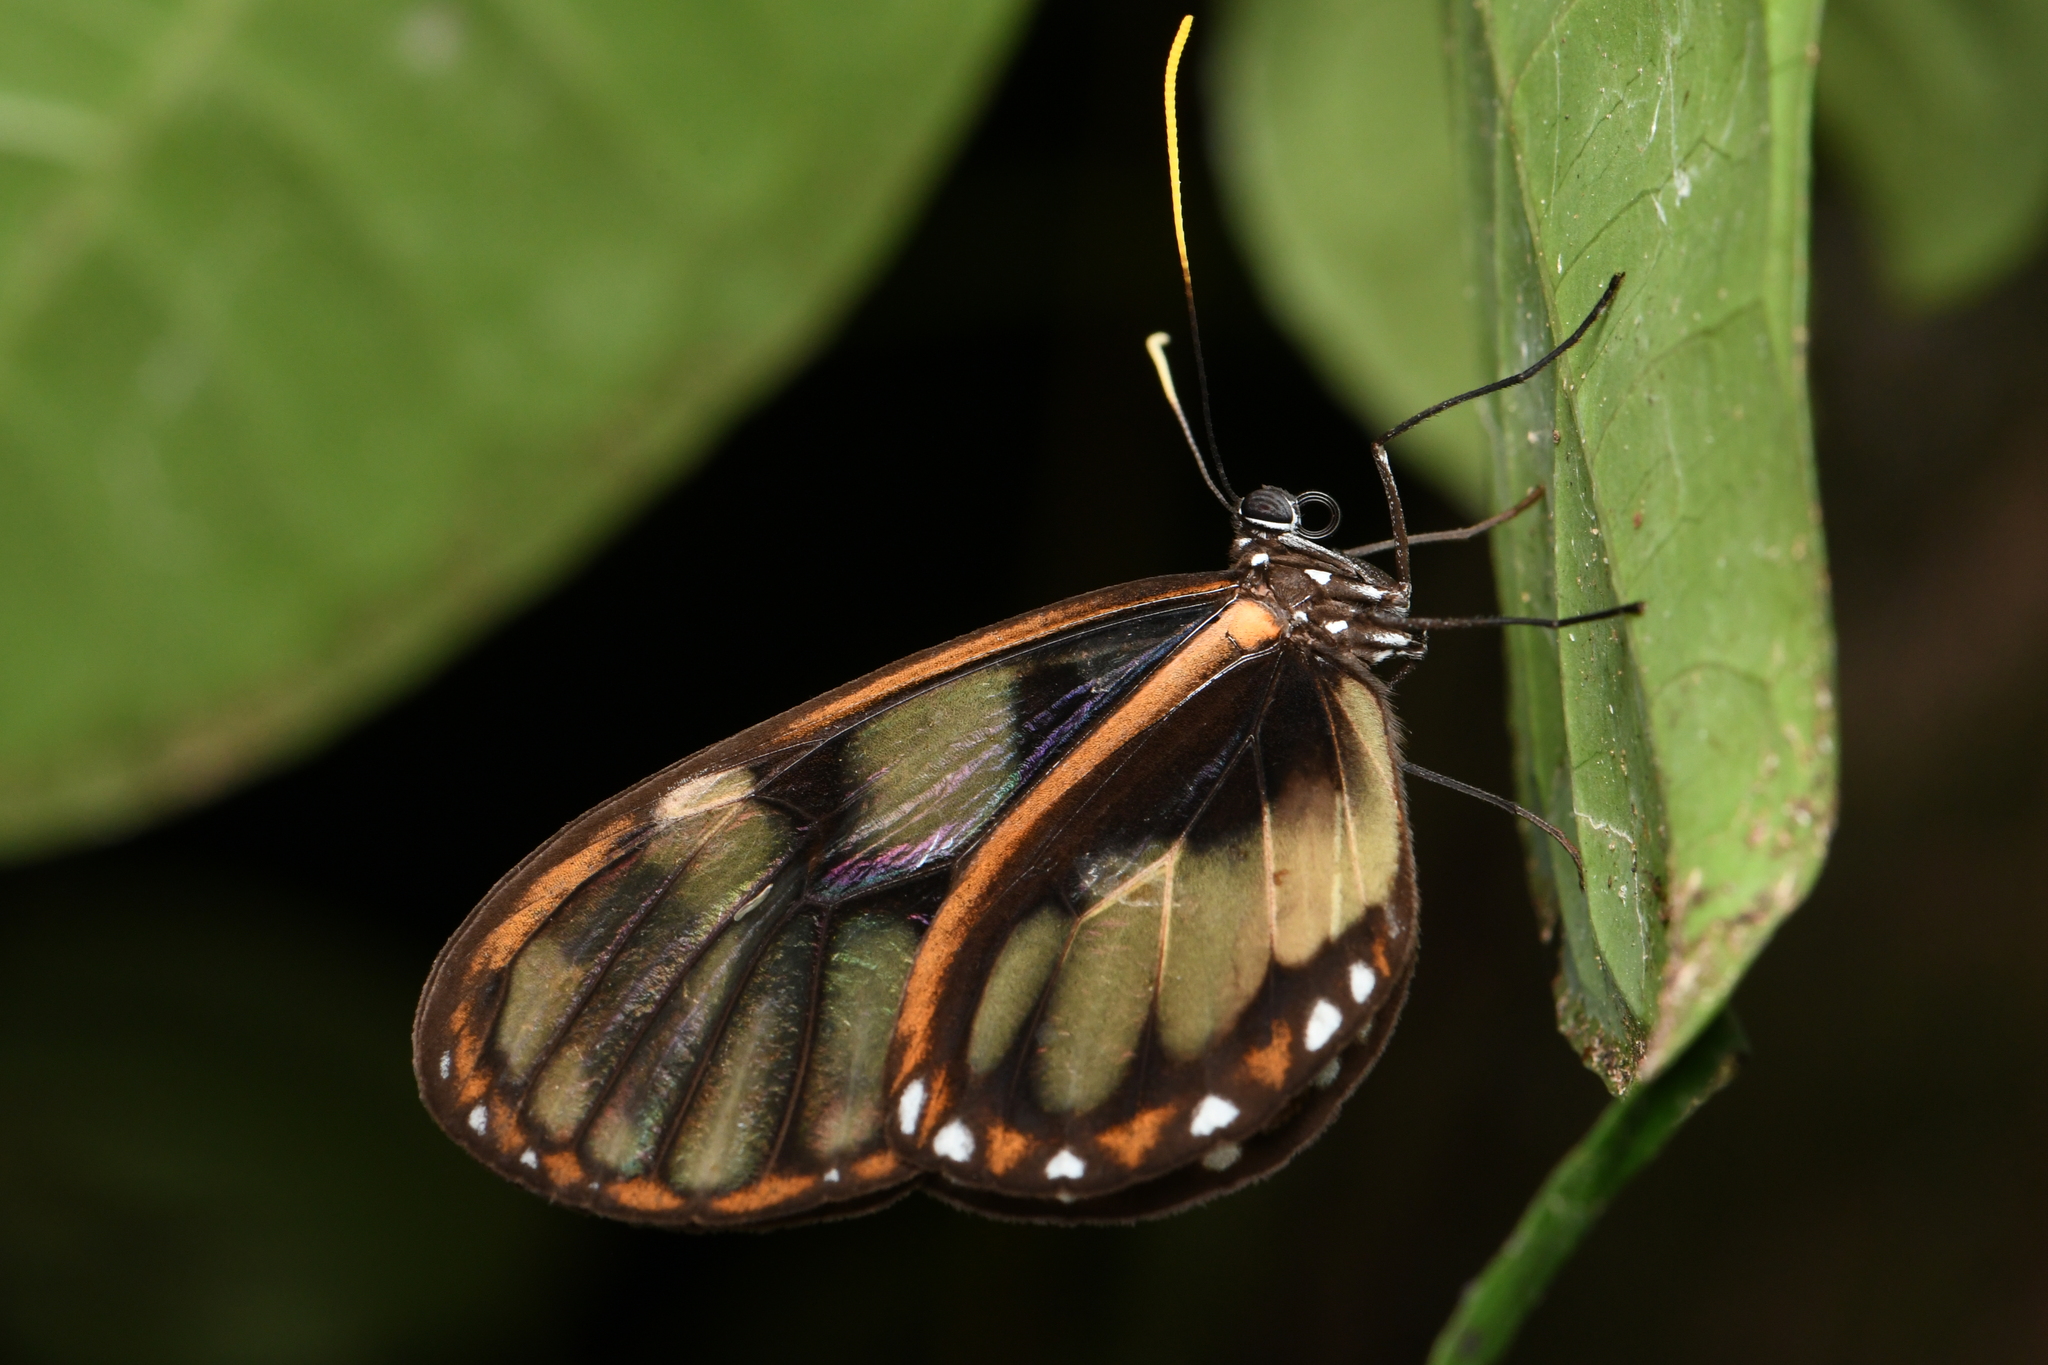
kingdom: Animalia
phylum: Arthropoda
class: Insecta
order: Lepidoptera
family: Nymphalidae
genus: Godyris
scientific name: Godyris zavaleta
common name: Zavaleta glasswing
